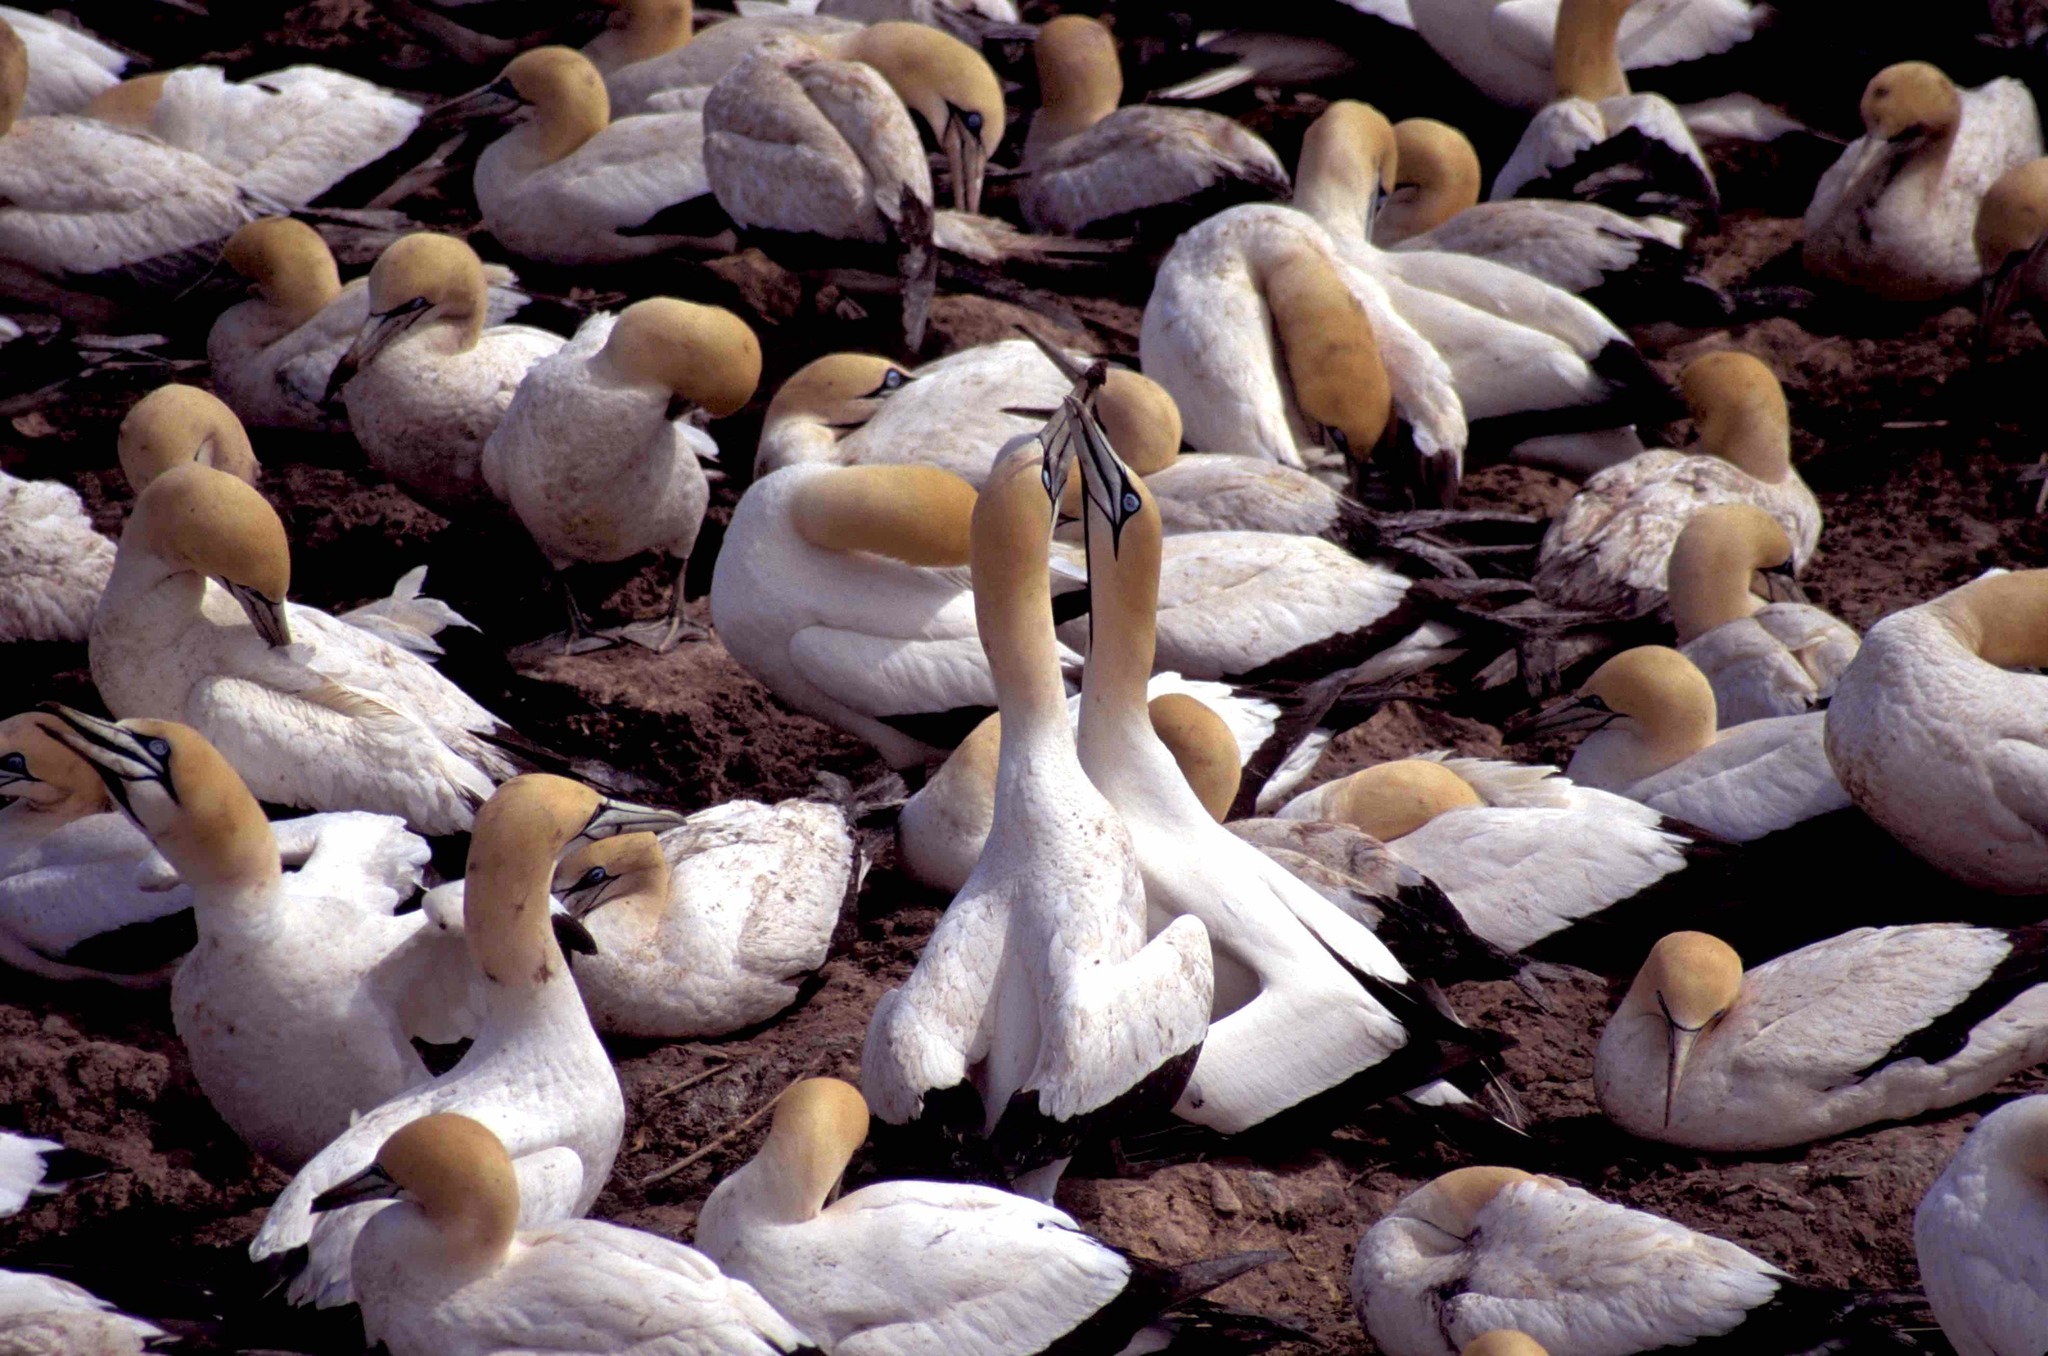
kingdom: Animalia
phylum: Chordata
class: Aves
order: Suliformes
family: Sulidae
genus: Morus
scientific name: Morus capensis
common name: Cape gannet
